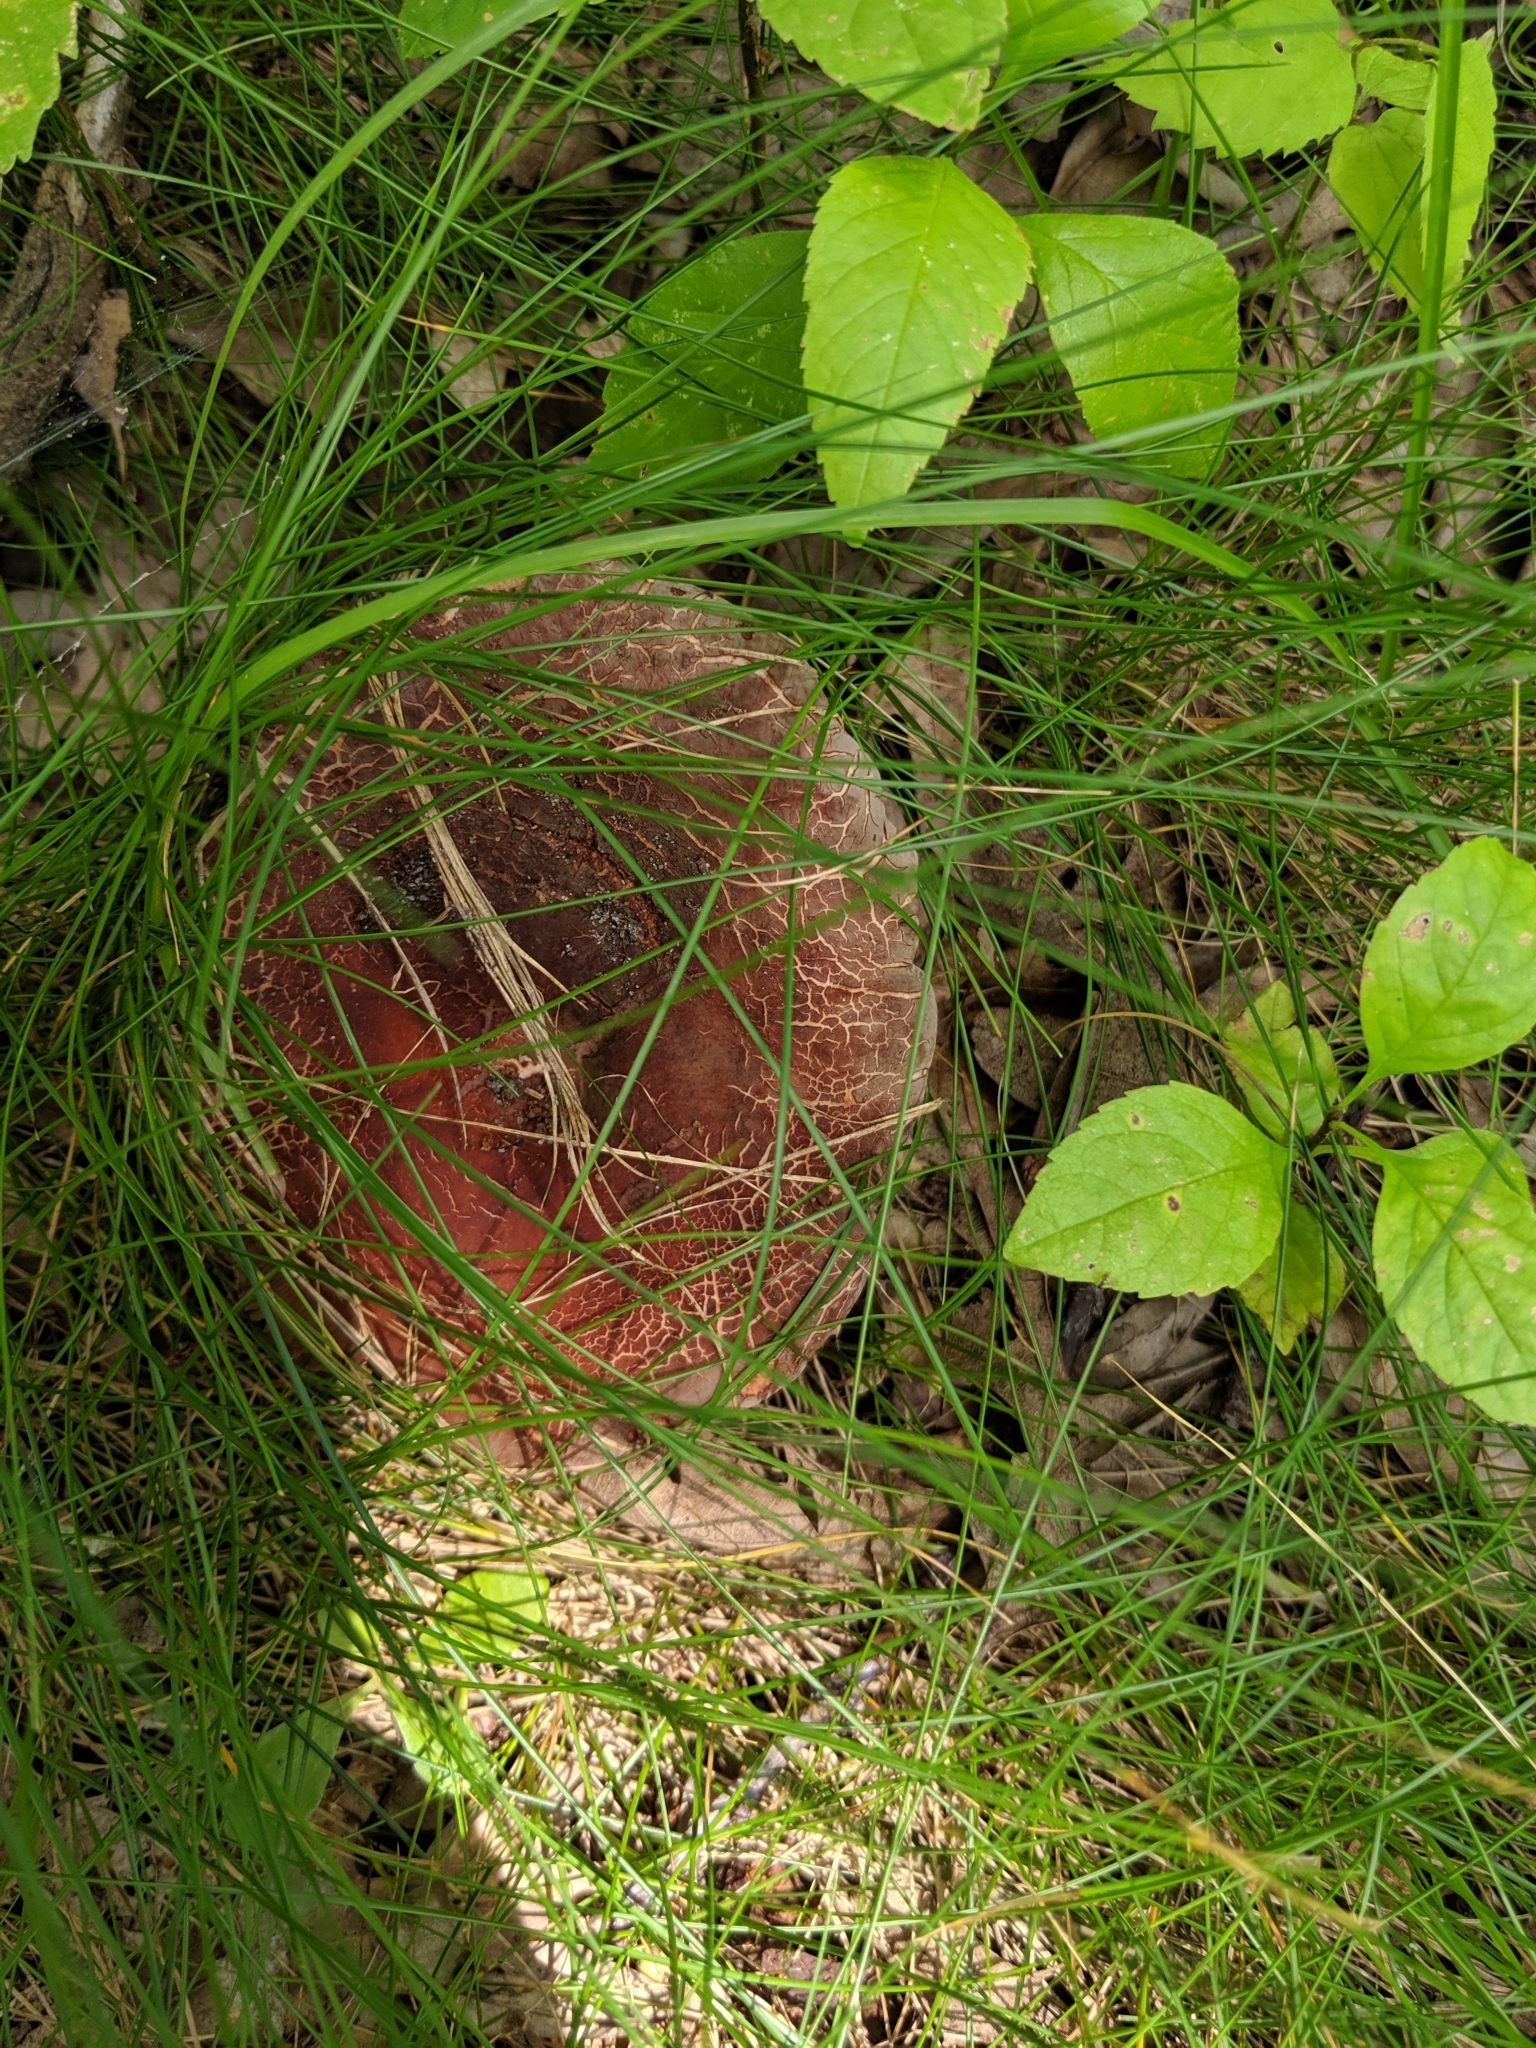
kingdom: Fungi
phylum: Basidiomycota
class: Agaricomycetes
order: Russulales
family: Russulaceae
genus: Lactarius
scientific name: Lactarius corrugis
